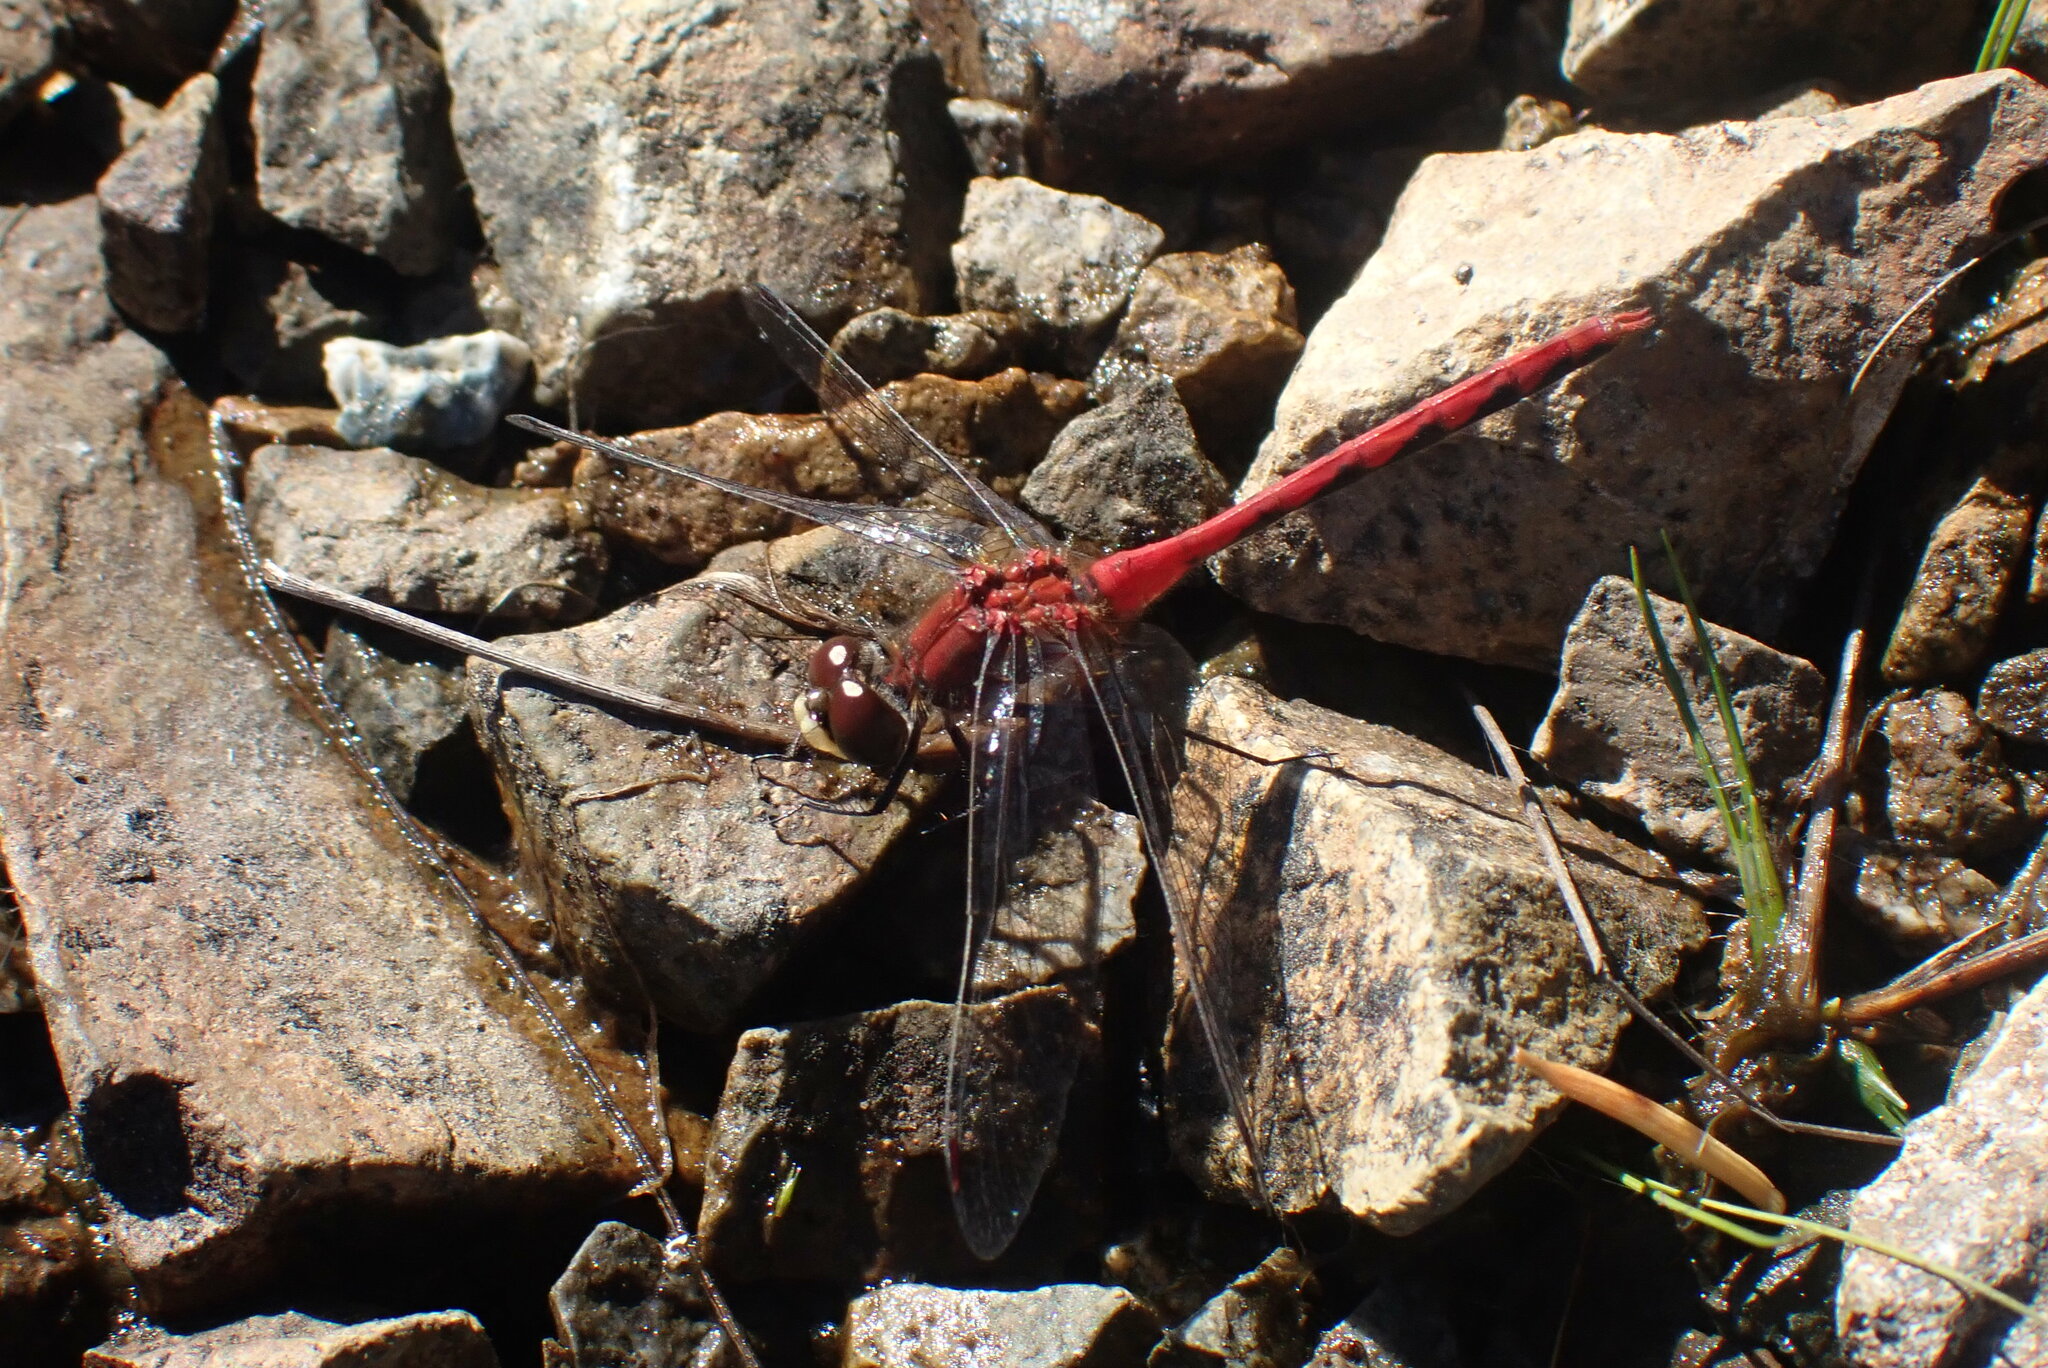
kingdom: Animalia
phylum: Arthropoda
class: Insecta
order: Odonata
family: Libellulidae
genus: Sympetrum
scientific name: Sympetrum obtrusum
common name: White-faced meadowhawk
